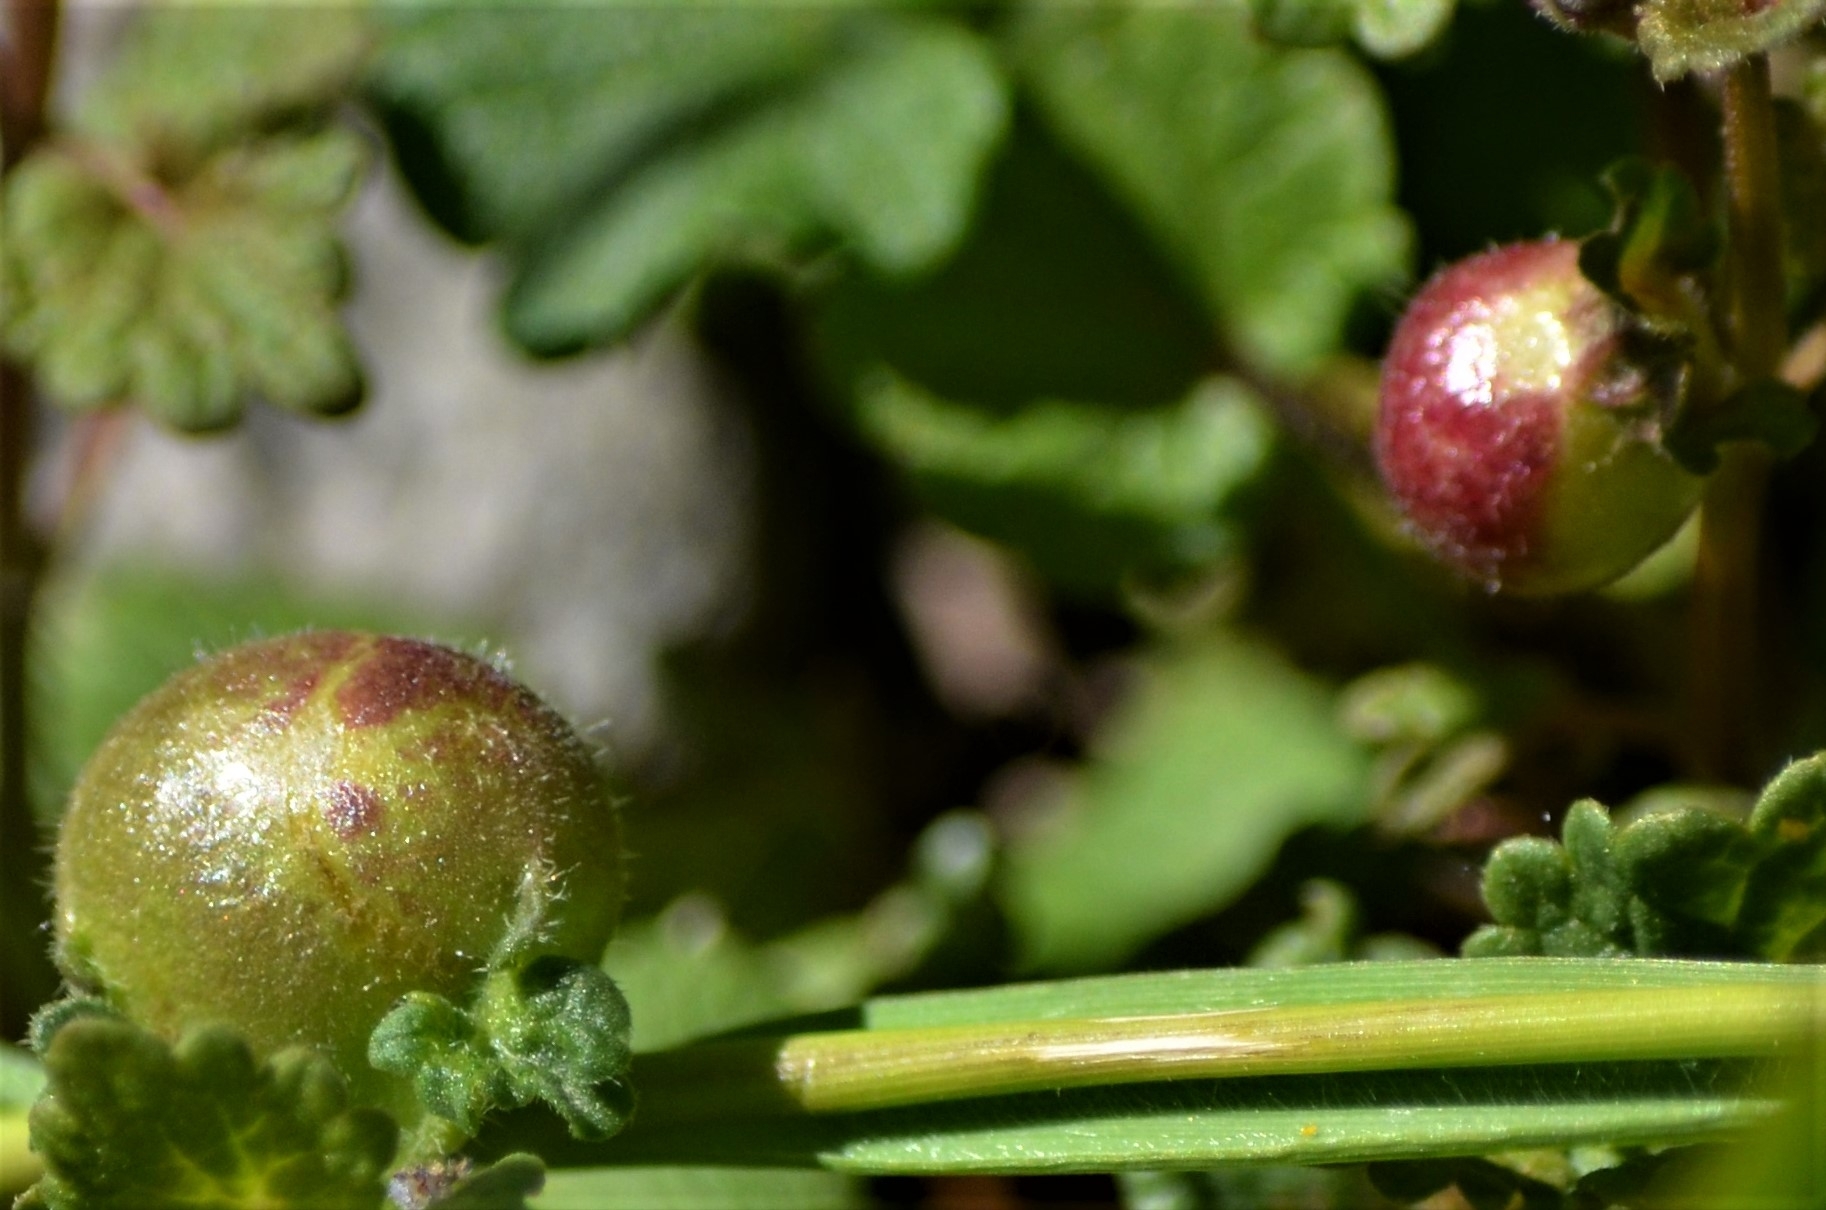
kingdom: Animalia
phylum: Arthropoda
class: Insecta
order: Hymenoptera
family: Cynipidae
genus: Liposthenes
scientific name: Liposthenes glechomae
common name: Gall wasp
